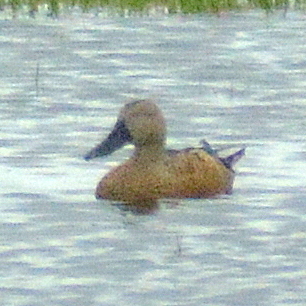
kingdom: Animalia
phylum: Chordata
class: Aves
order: Anseriformes
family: Anatidae
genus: Spatula
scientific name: Spatula platalea
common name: Red shoveler
